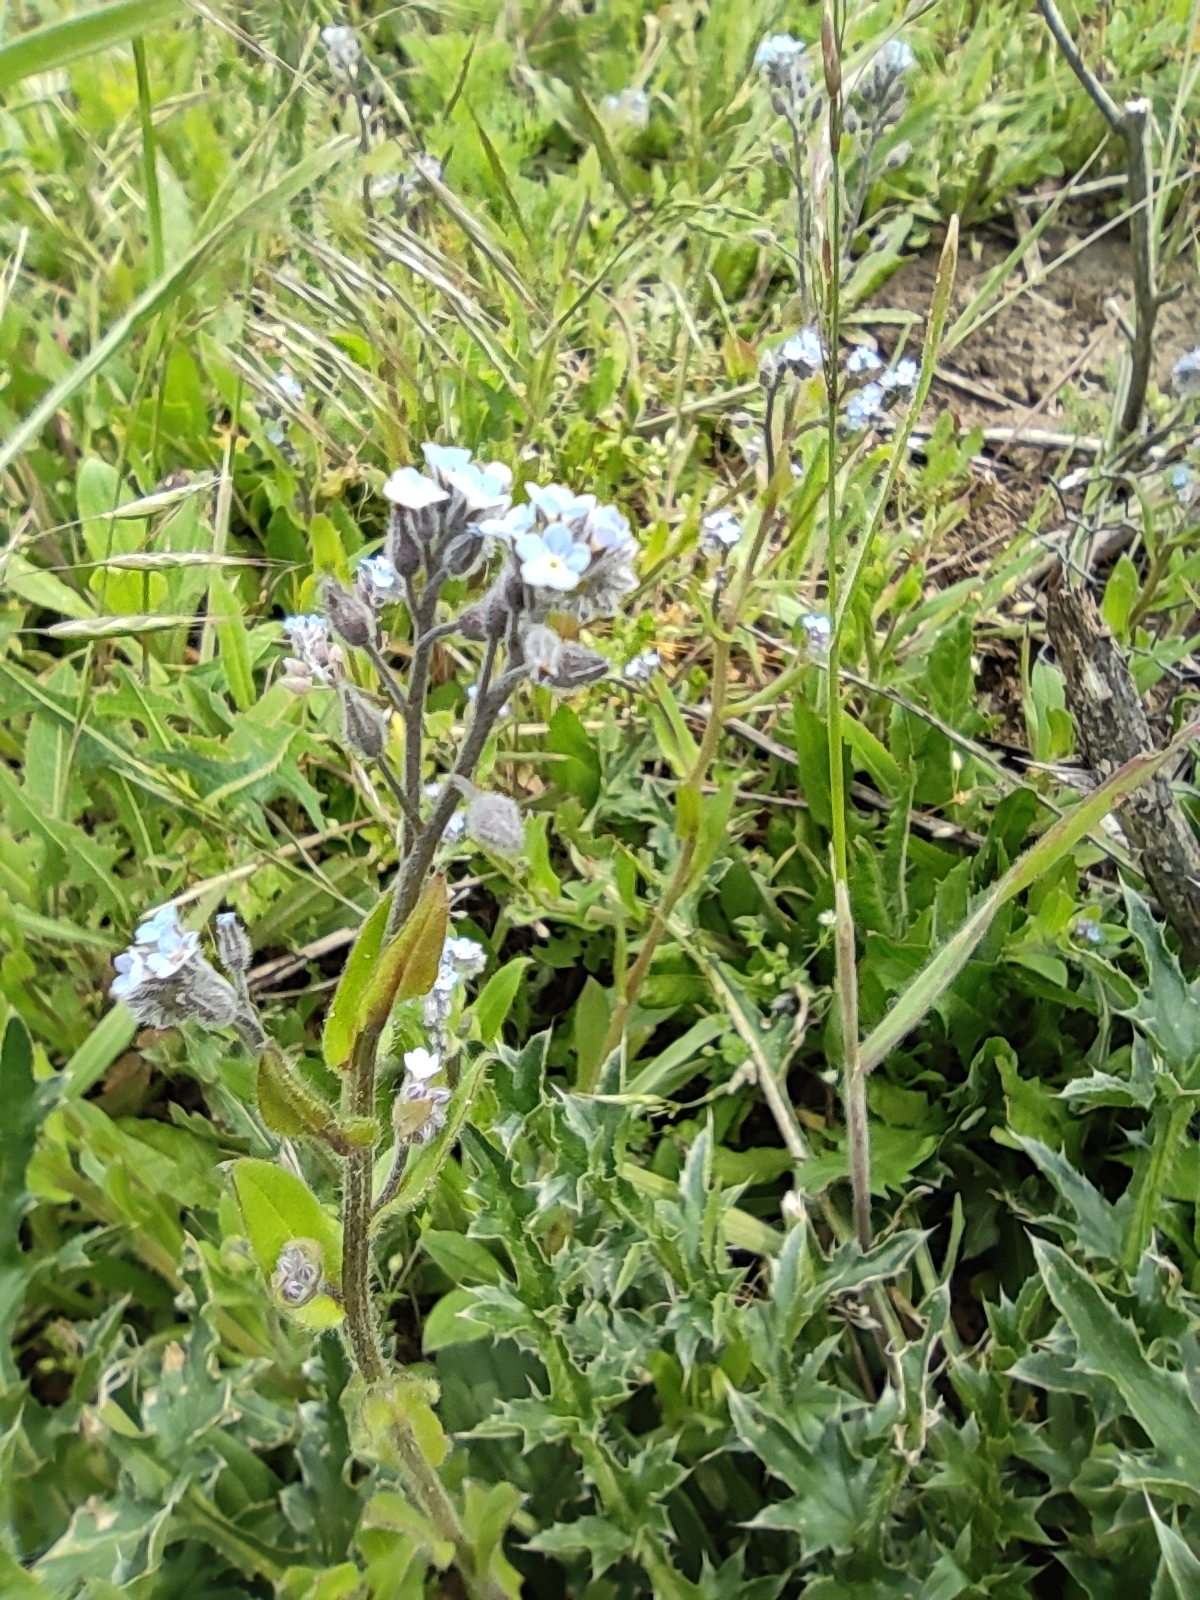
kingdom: Plantae
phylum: Tracheophyta
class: Magnoliopsida
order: Boraginales
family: Boraginaceae
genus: Myosotis
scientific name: Myosotis arvensis
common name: Field forget-me-not
